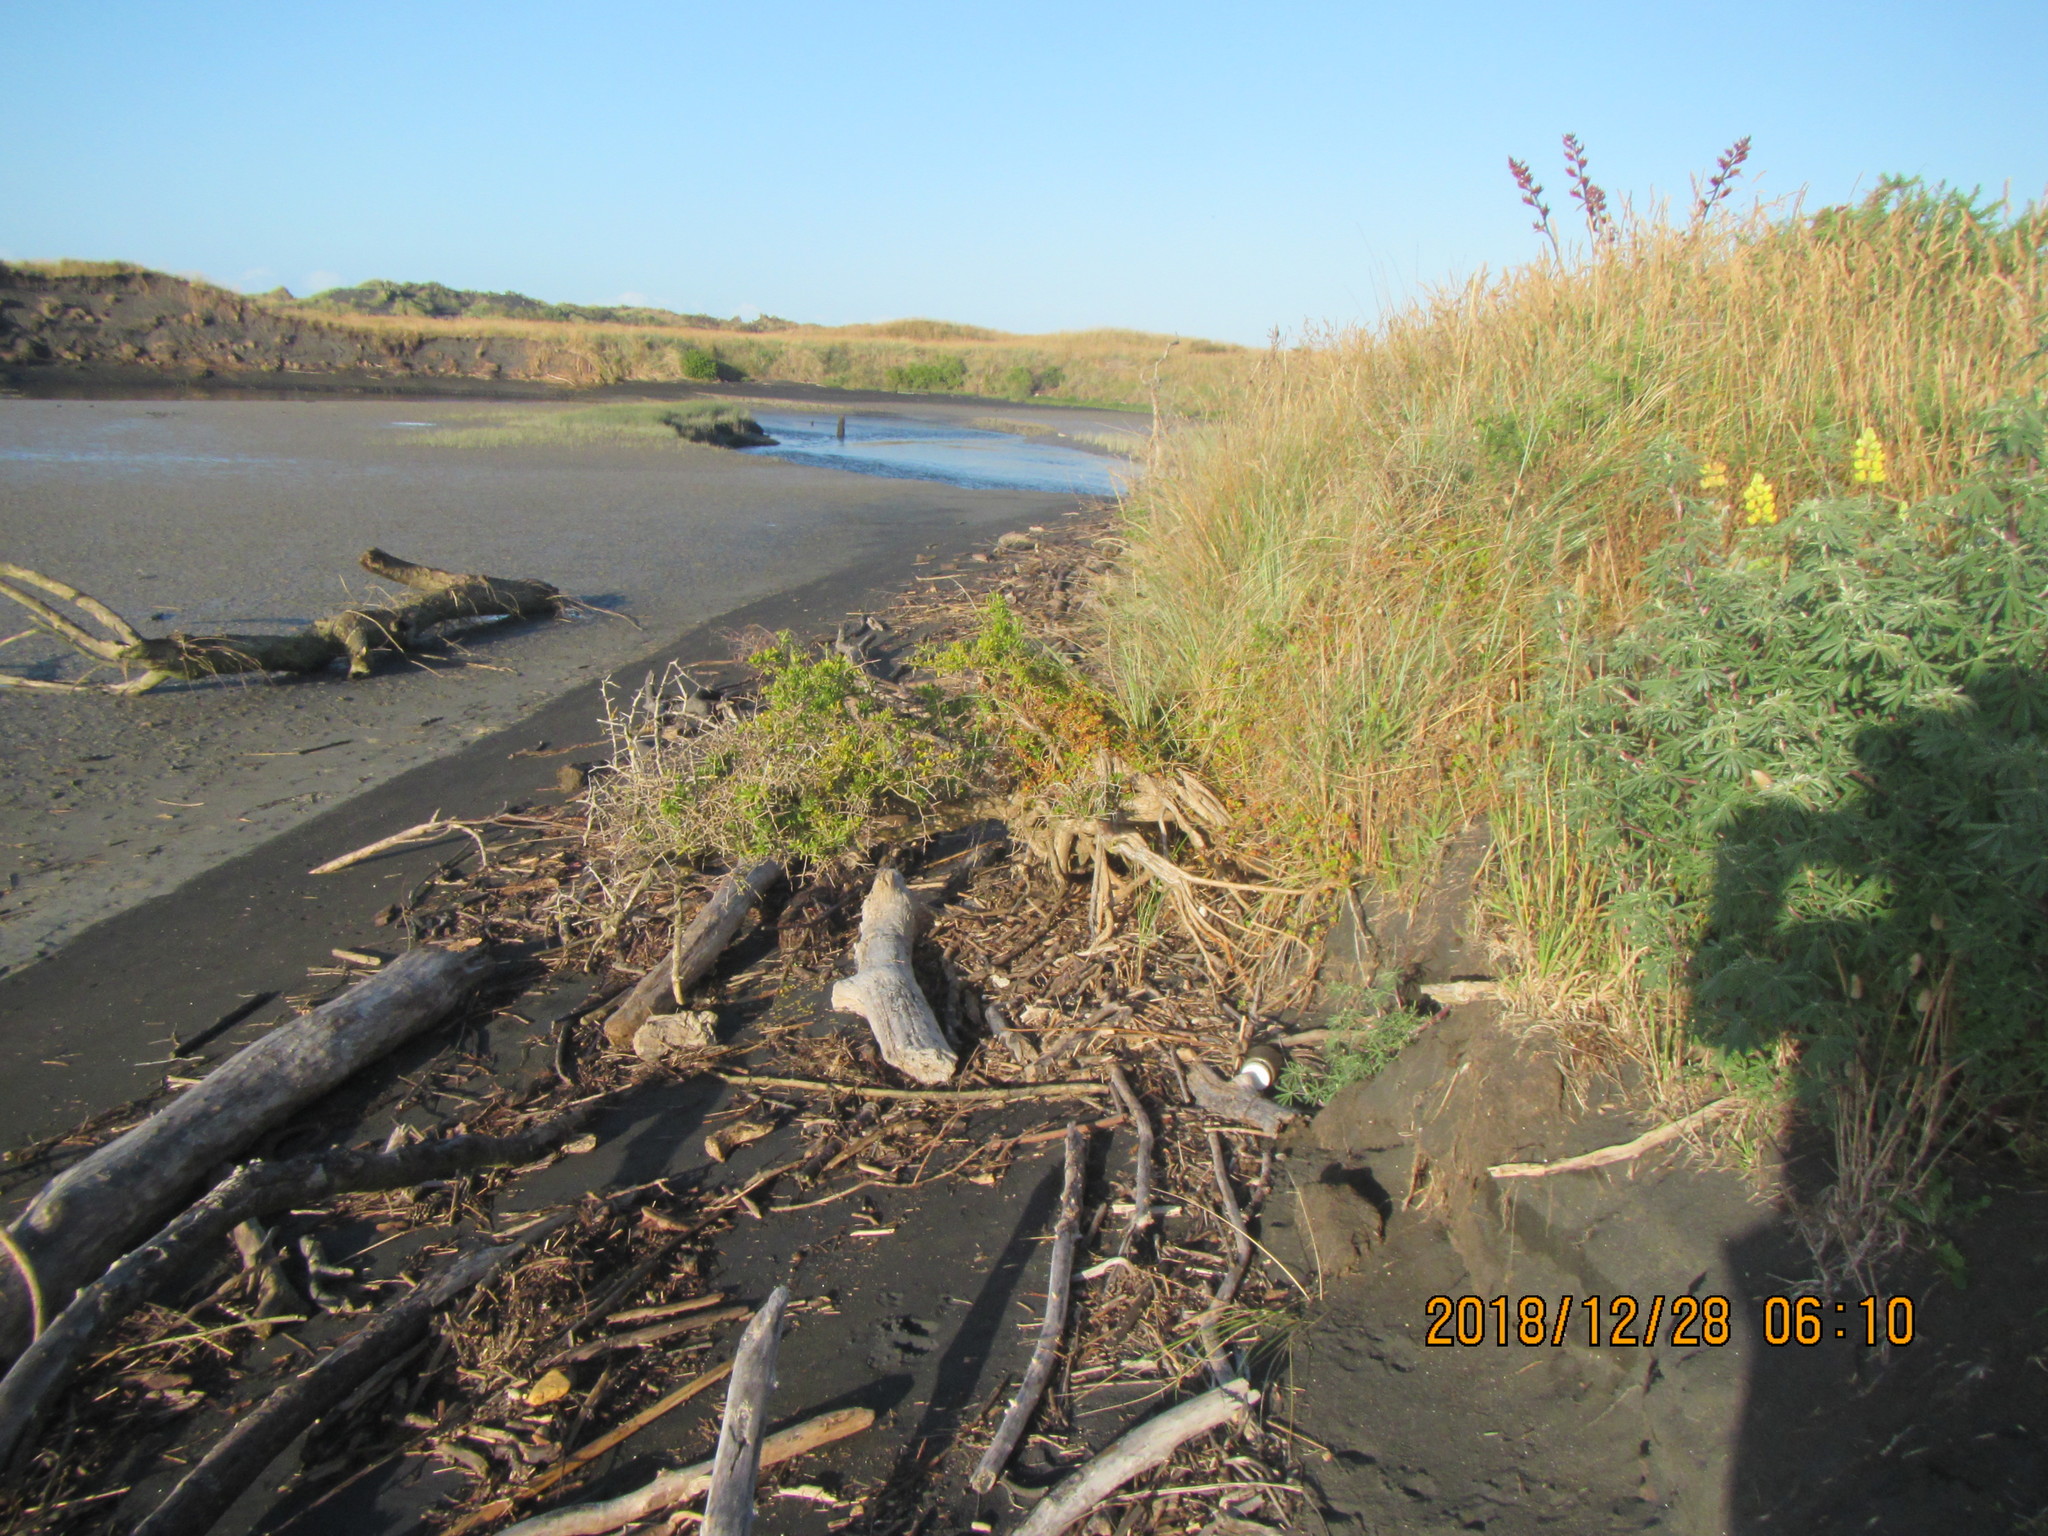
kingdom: Plantae
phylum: Tracheophyta
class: Magnoliopsida
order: Caryophyllales
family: Aizoaceae
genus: Tetragonia
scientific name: Tetragonia implexicoma
